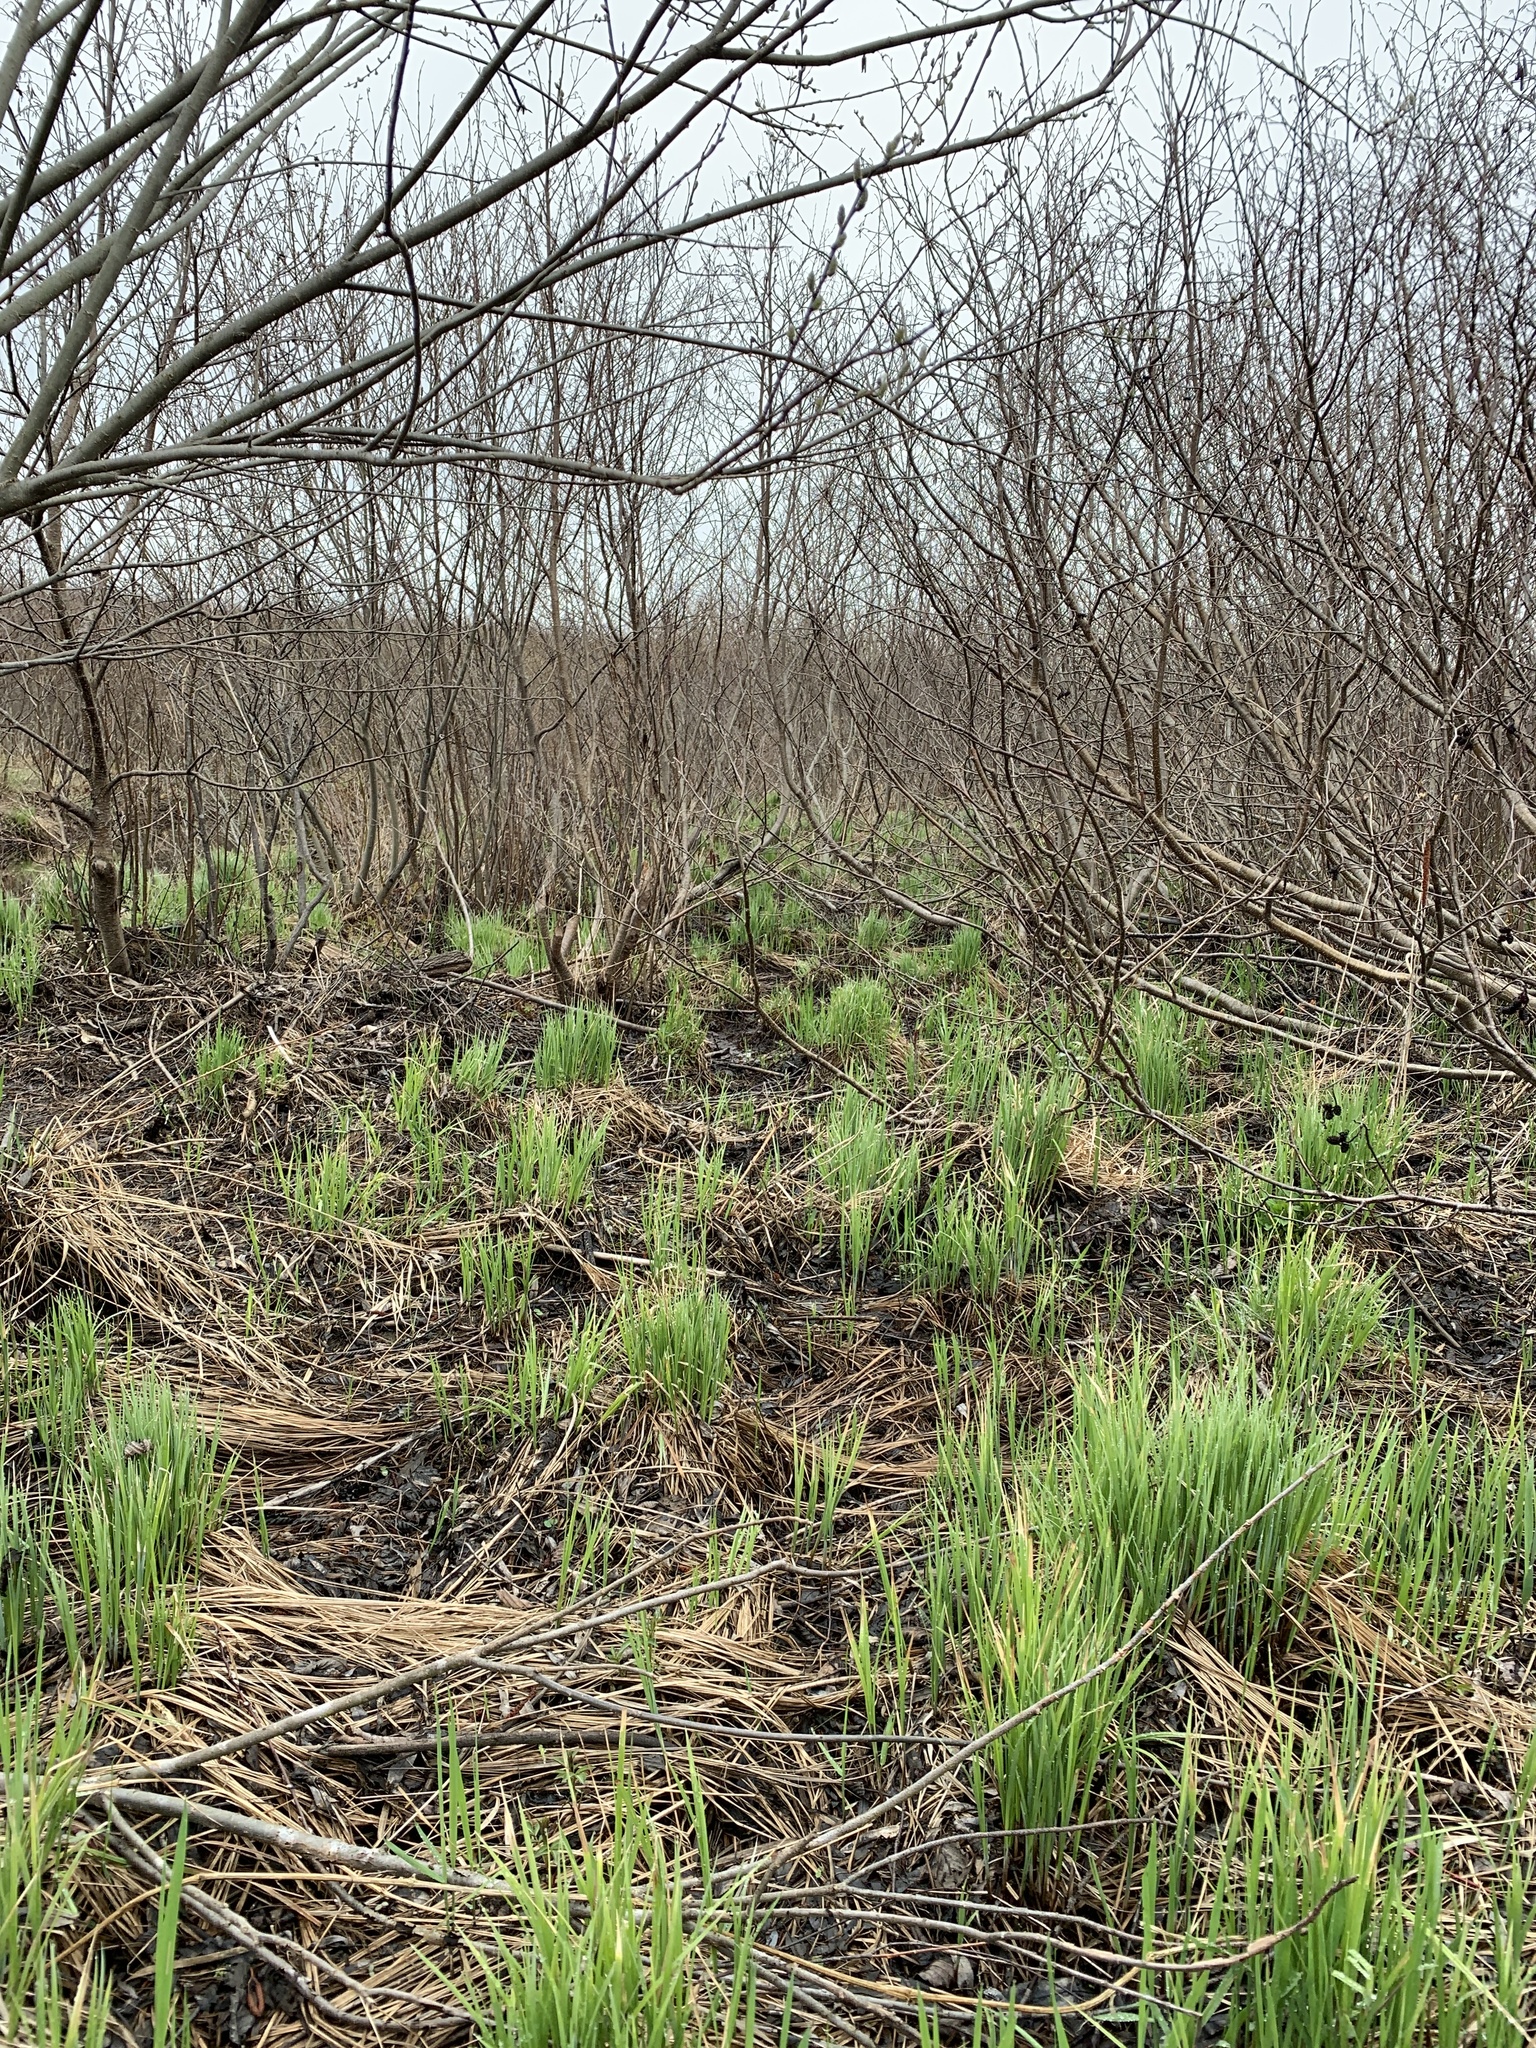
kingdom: Plantae
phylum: Tracheophyta
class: Liliopsida
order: Poales
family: Cyperaceae
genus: Carex
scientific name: Carex stricta
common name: Hummock sedge
